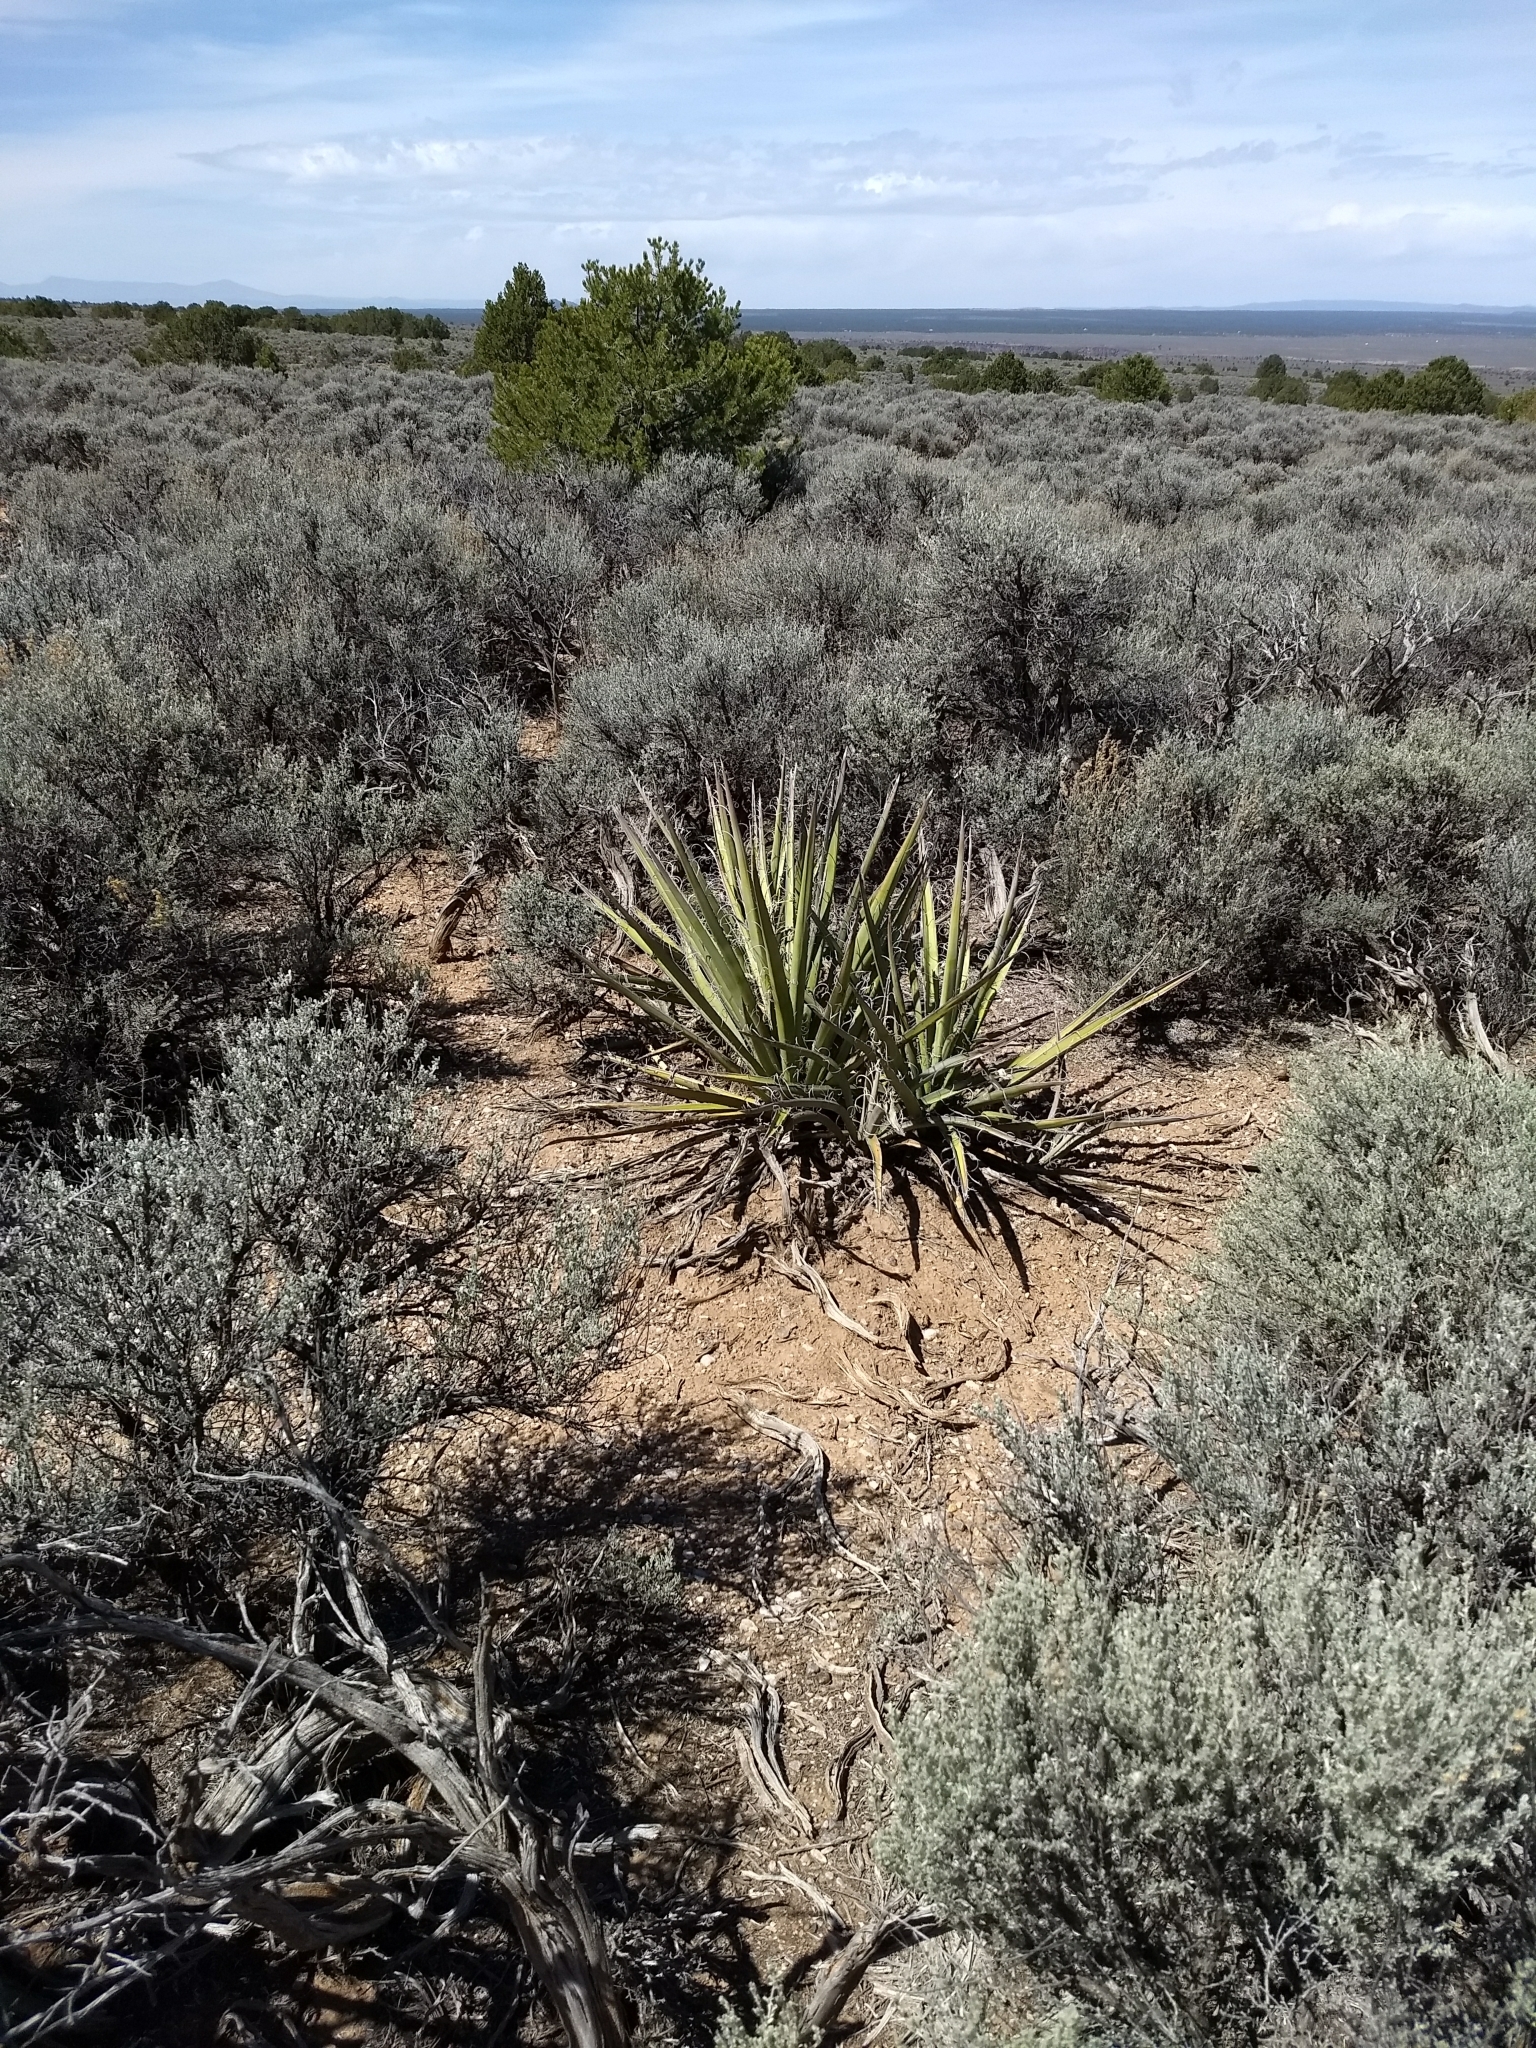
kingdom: Plantae
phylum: Tracheophyta
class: Liliopsida
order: Asparagales
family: Asparagaceae
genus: Yucca
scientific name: Yucca baccata
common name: Banana yucca
